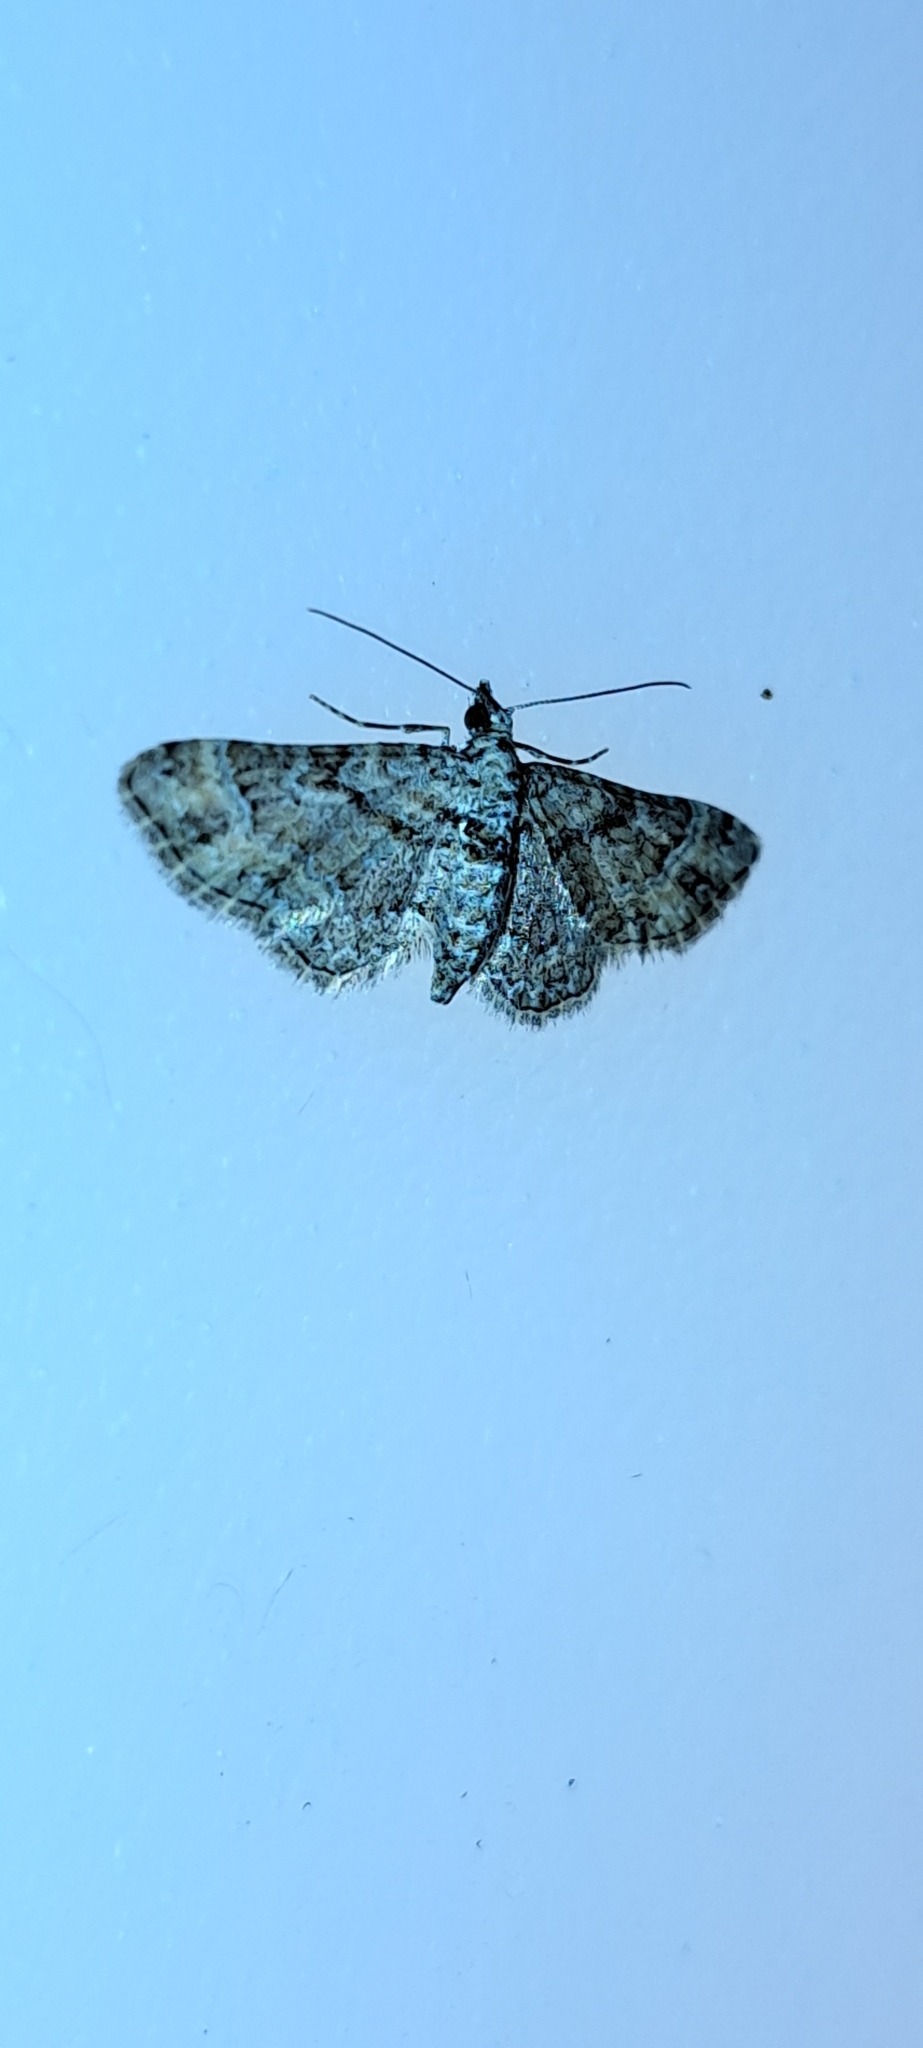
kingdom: Animalia
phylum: Arthropoda
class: Insecta
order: Lepidoptera
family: Geometridae
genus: Gymnoscelis
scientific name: Gymnoscelis rufifasciata
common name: Double-striped pug
